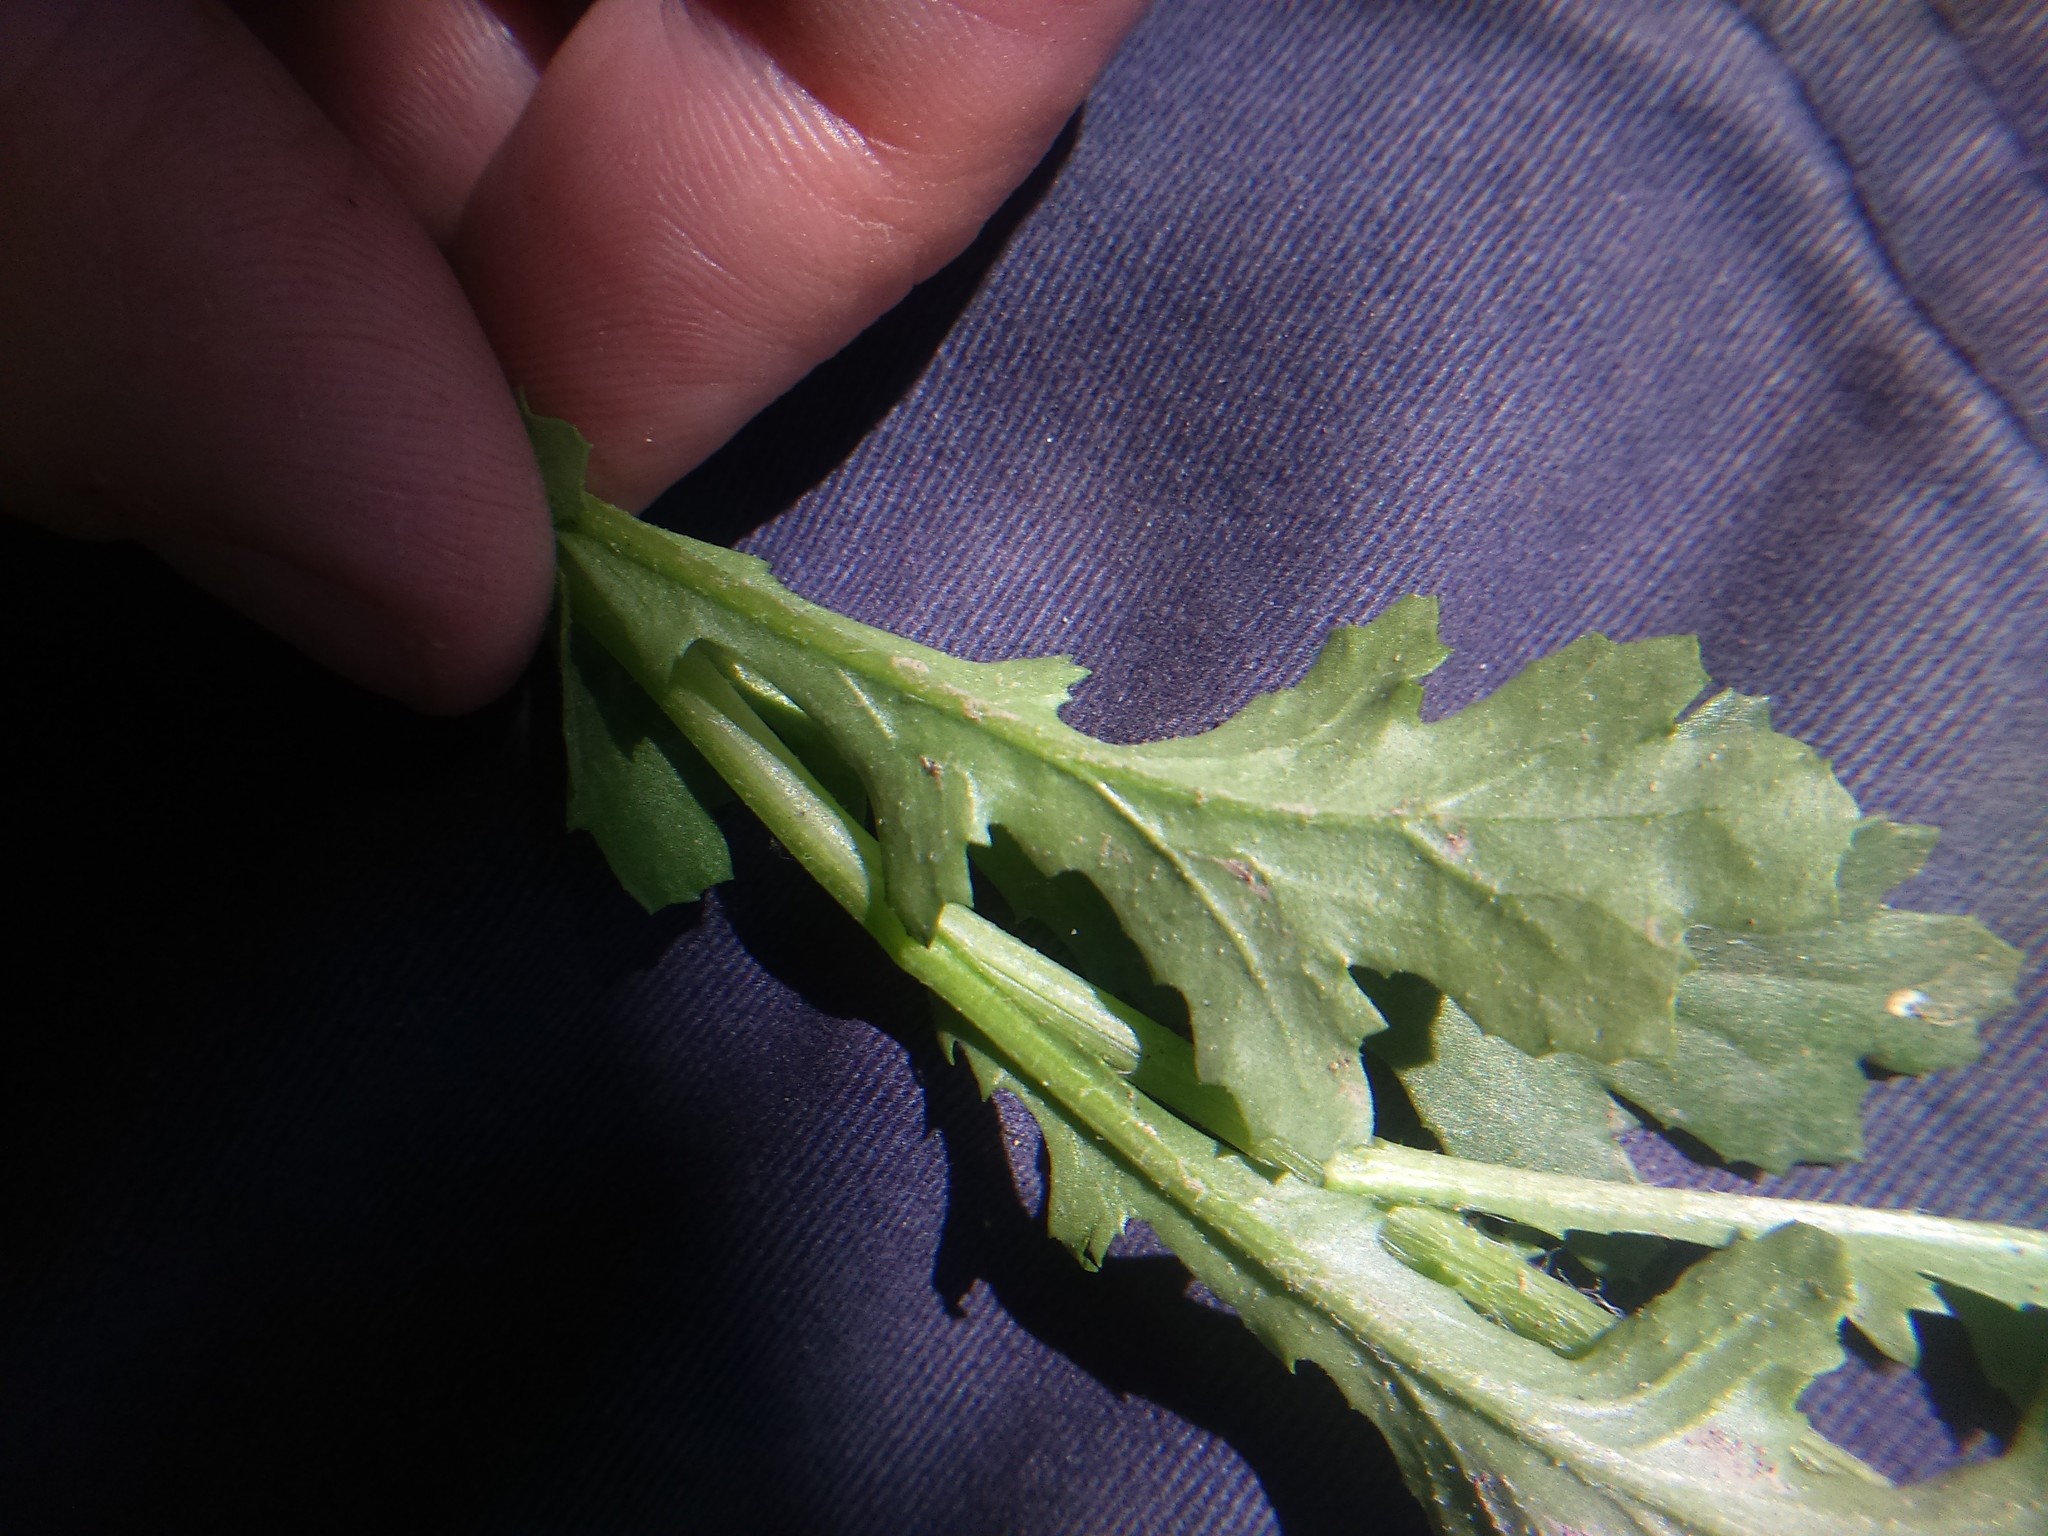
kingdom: Plantae
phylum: Tracheophyta
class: Magnoliopsida
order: Asterales
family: Asteraceae
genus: Senecio
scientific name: Senecio vulgaris
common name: Old-man-in-the-spring
